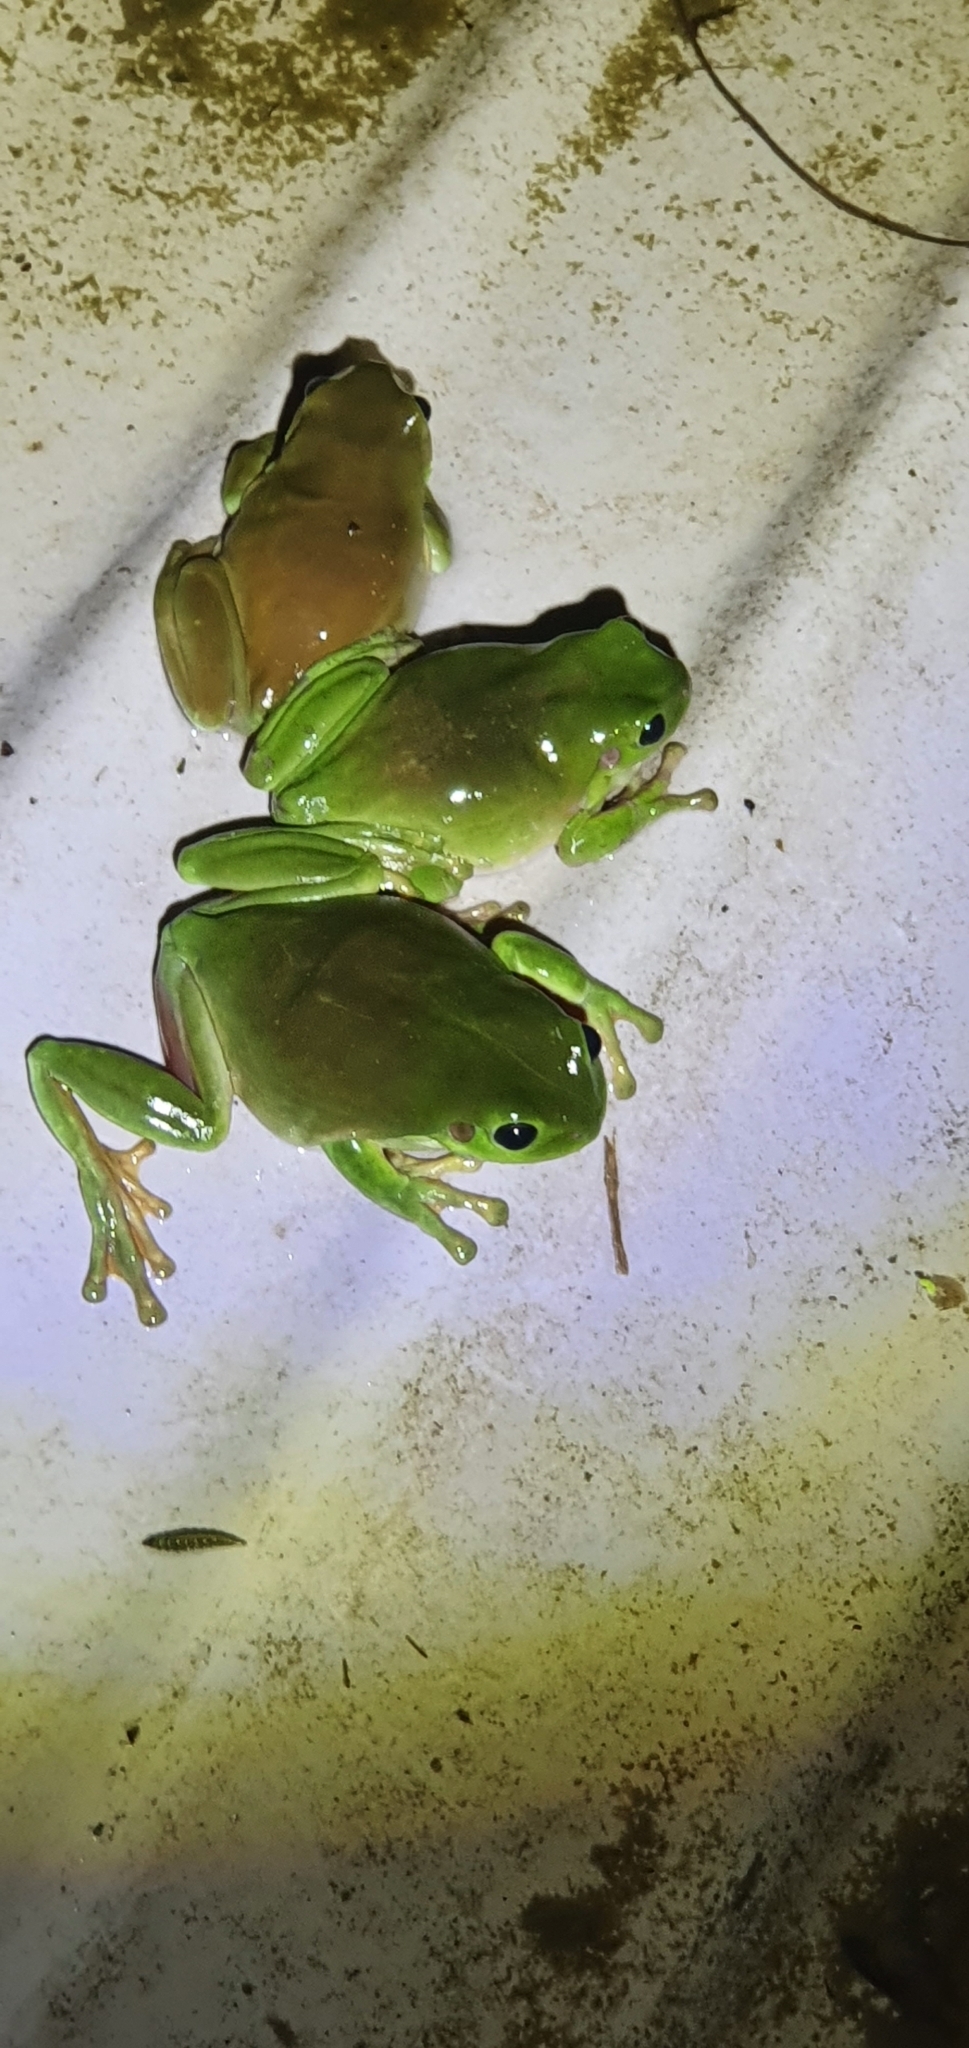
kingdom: Animalia
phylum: Chordata
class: Amphibia
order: Anura
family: Pelodryadidae
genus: Ranoidea
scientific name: Ranoidea caerulea
